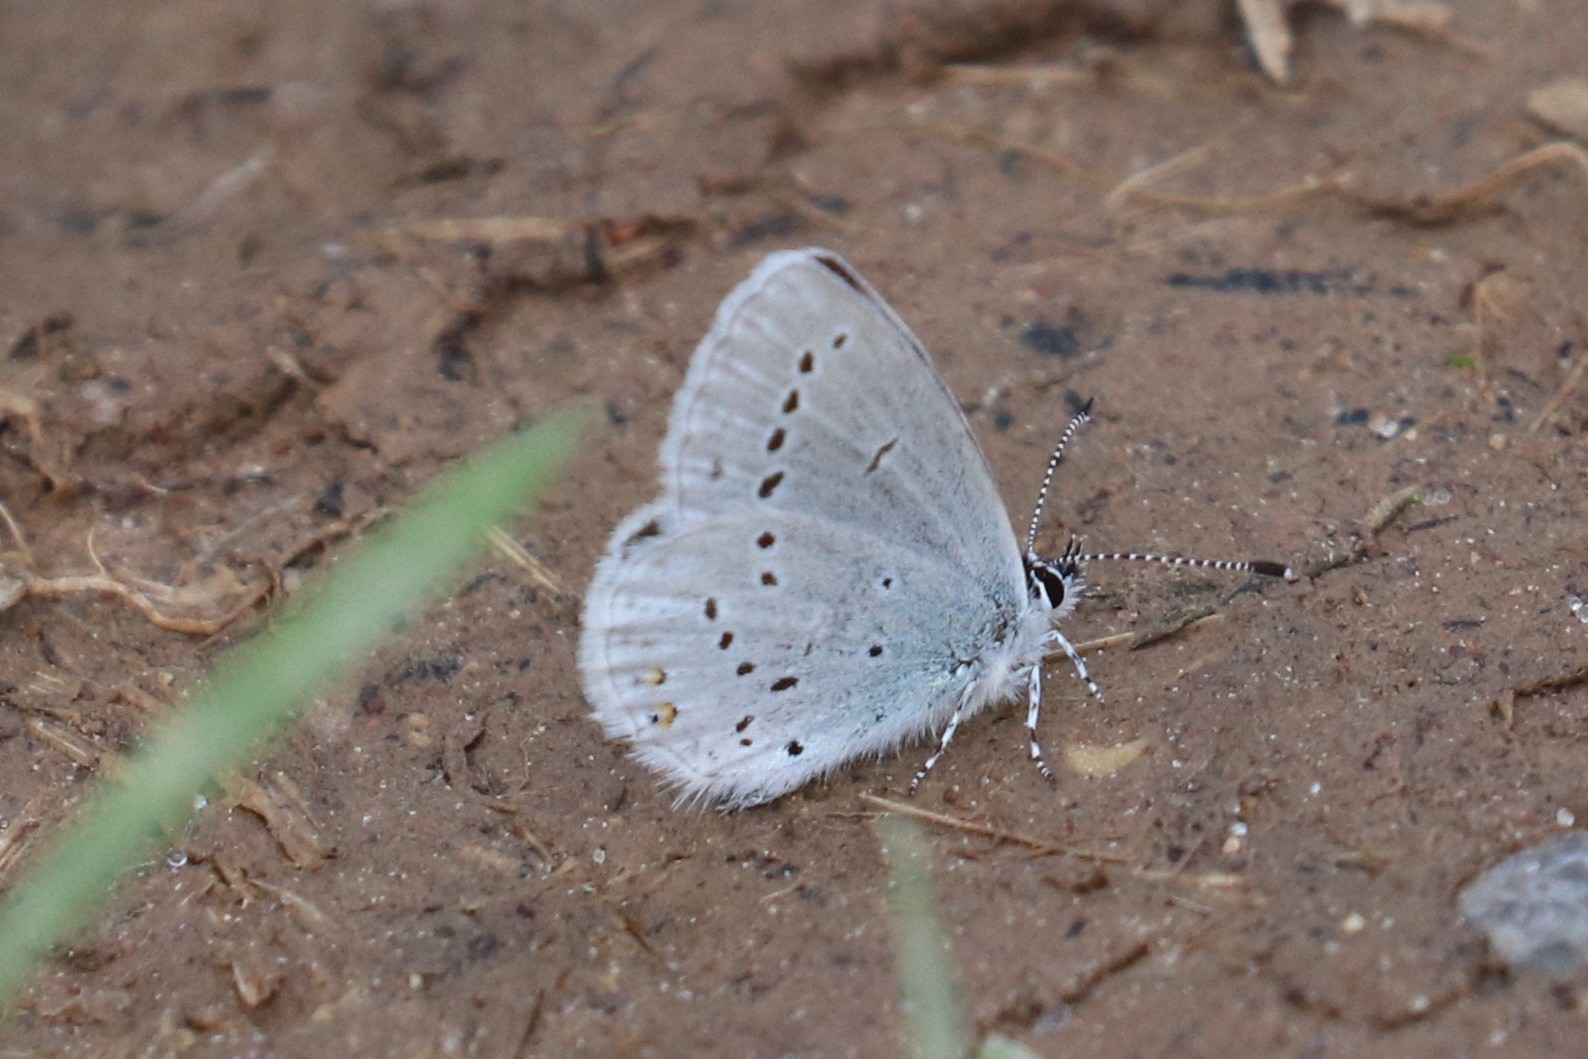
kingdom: Animalia
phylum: Arthropoda
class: Insecta
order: Lepidoptera
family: Lycaenidae
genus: Elkalyce
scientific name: Elkalyce argiades
